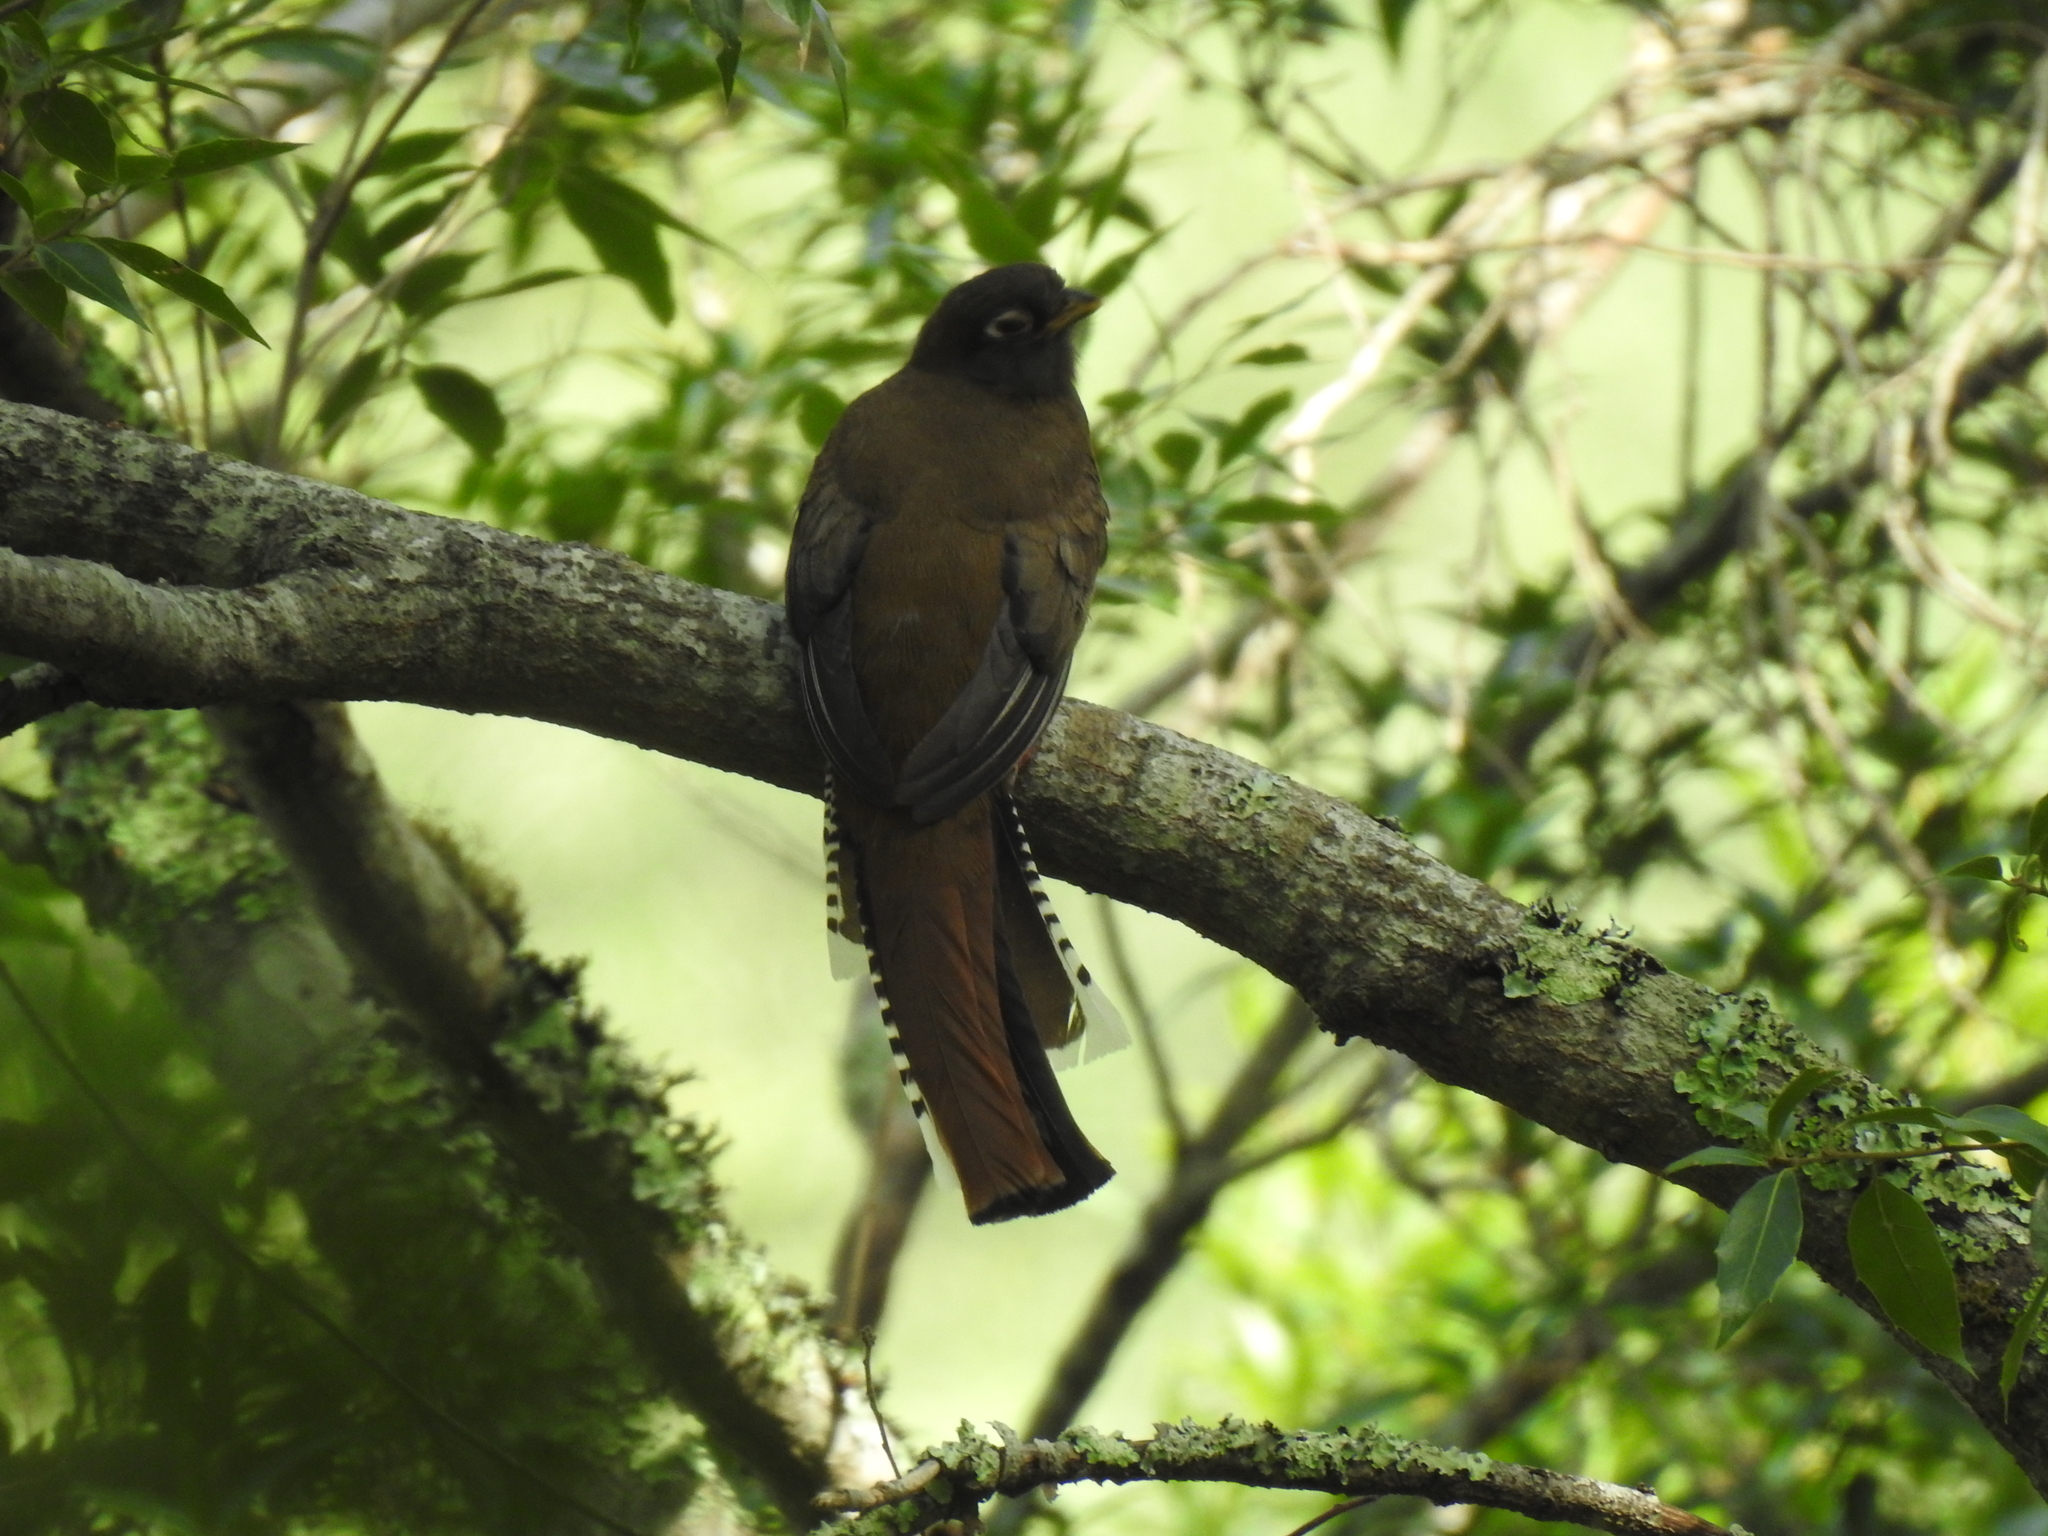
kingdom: Animalia
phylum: Chordata
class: Aves
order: Trogoniformes
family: Trogonidae
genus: Trogon
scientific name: Trogon mexicanus
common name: Mountain trogon
